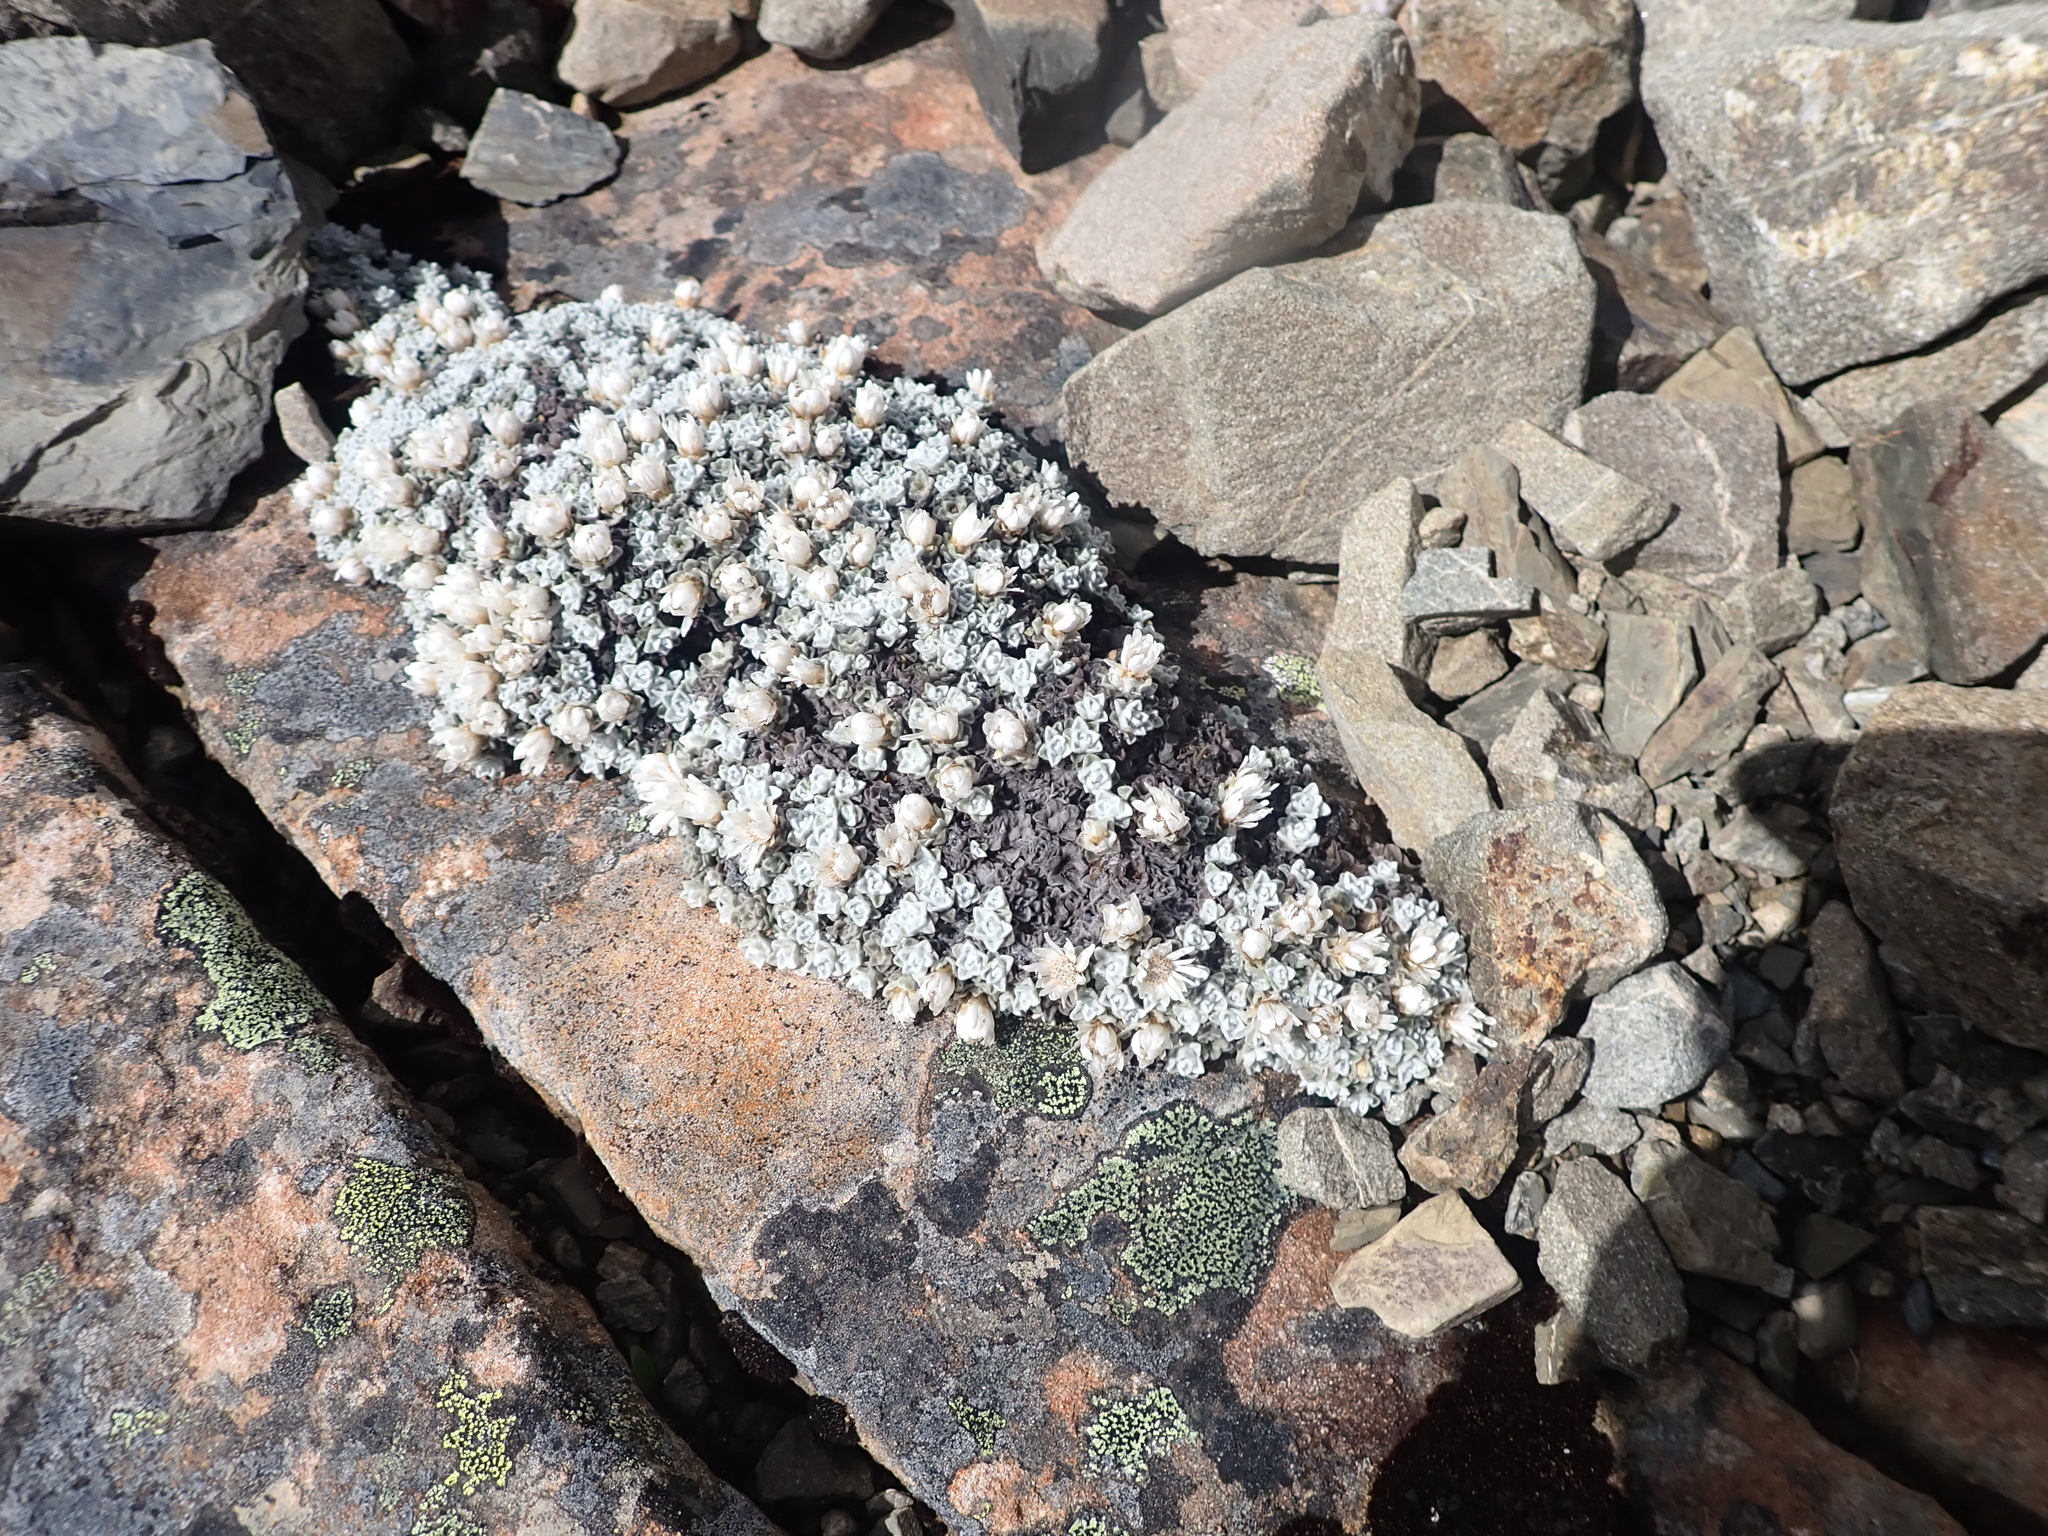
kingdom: Plantae
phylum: Tracheophyta
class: Magnoliopsida
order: Asterales
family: Asteraceae
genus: Raoulia
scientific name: Raoulia youngii
